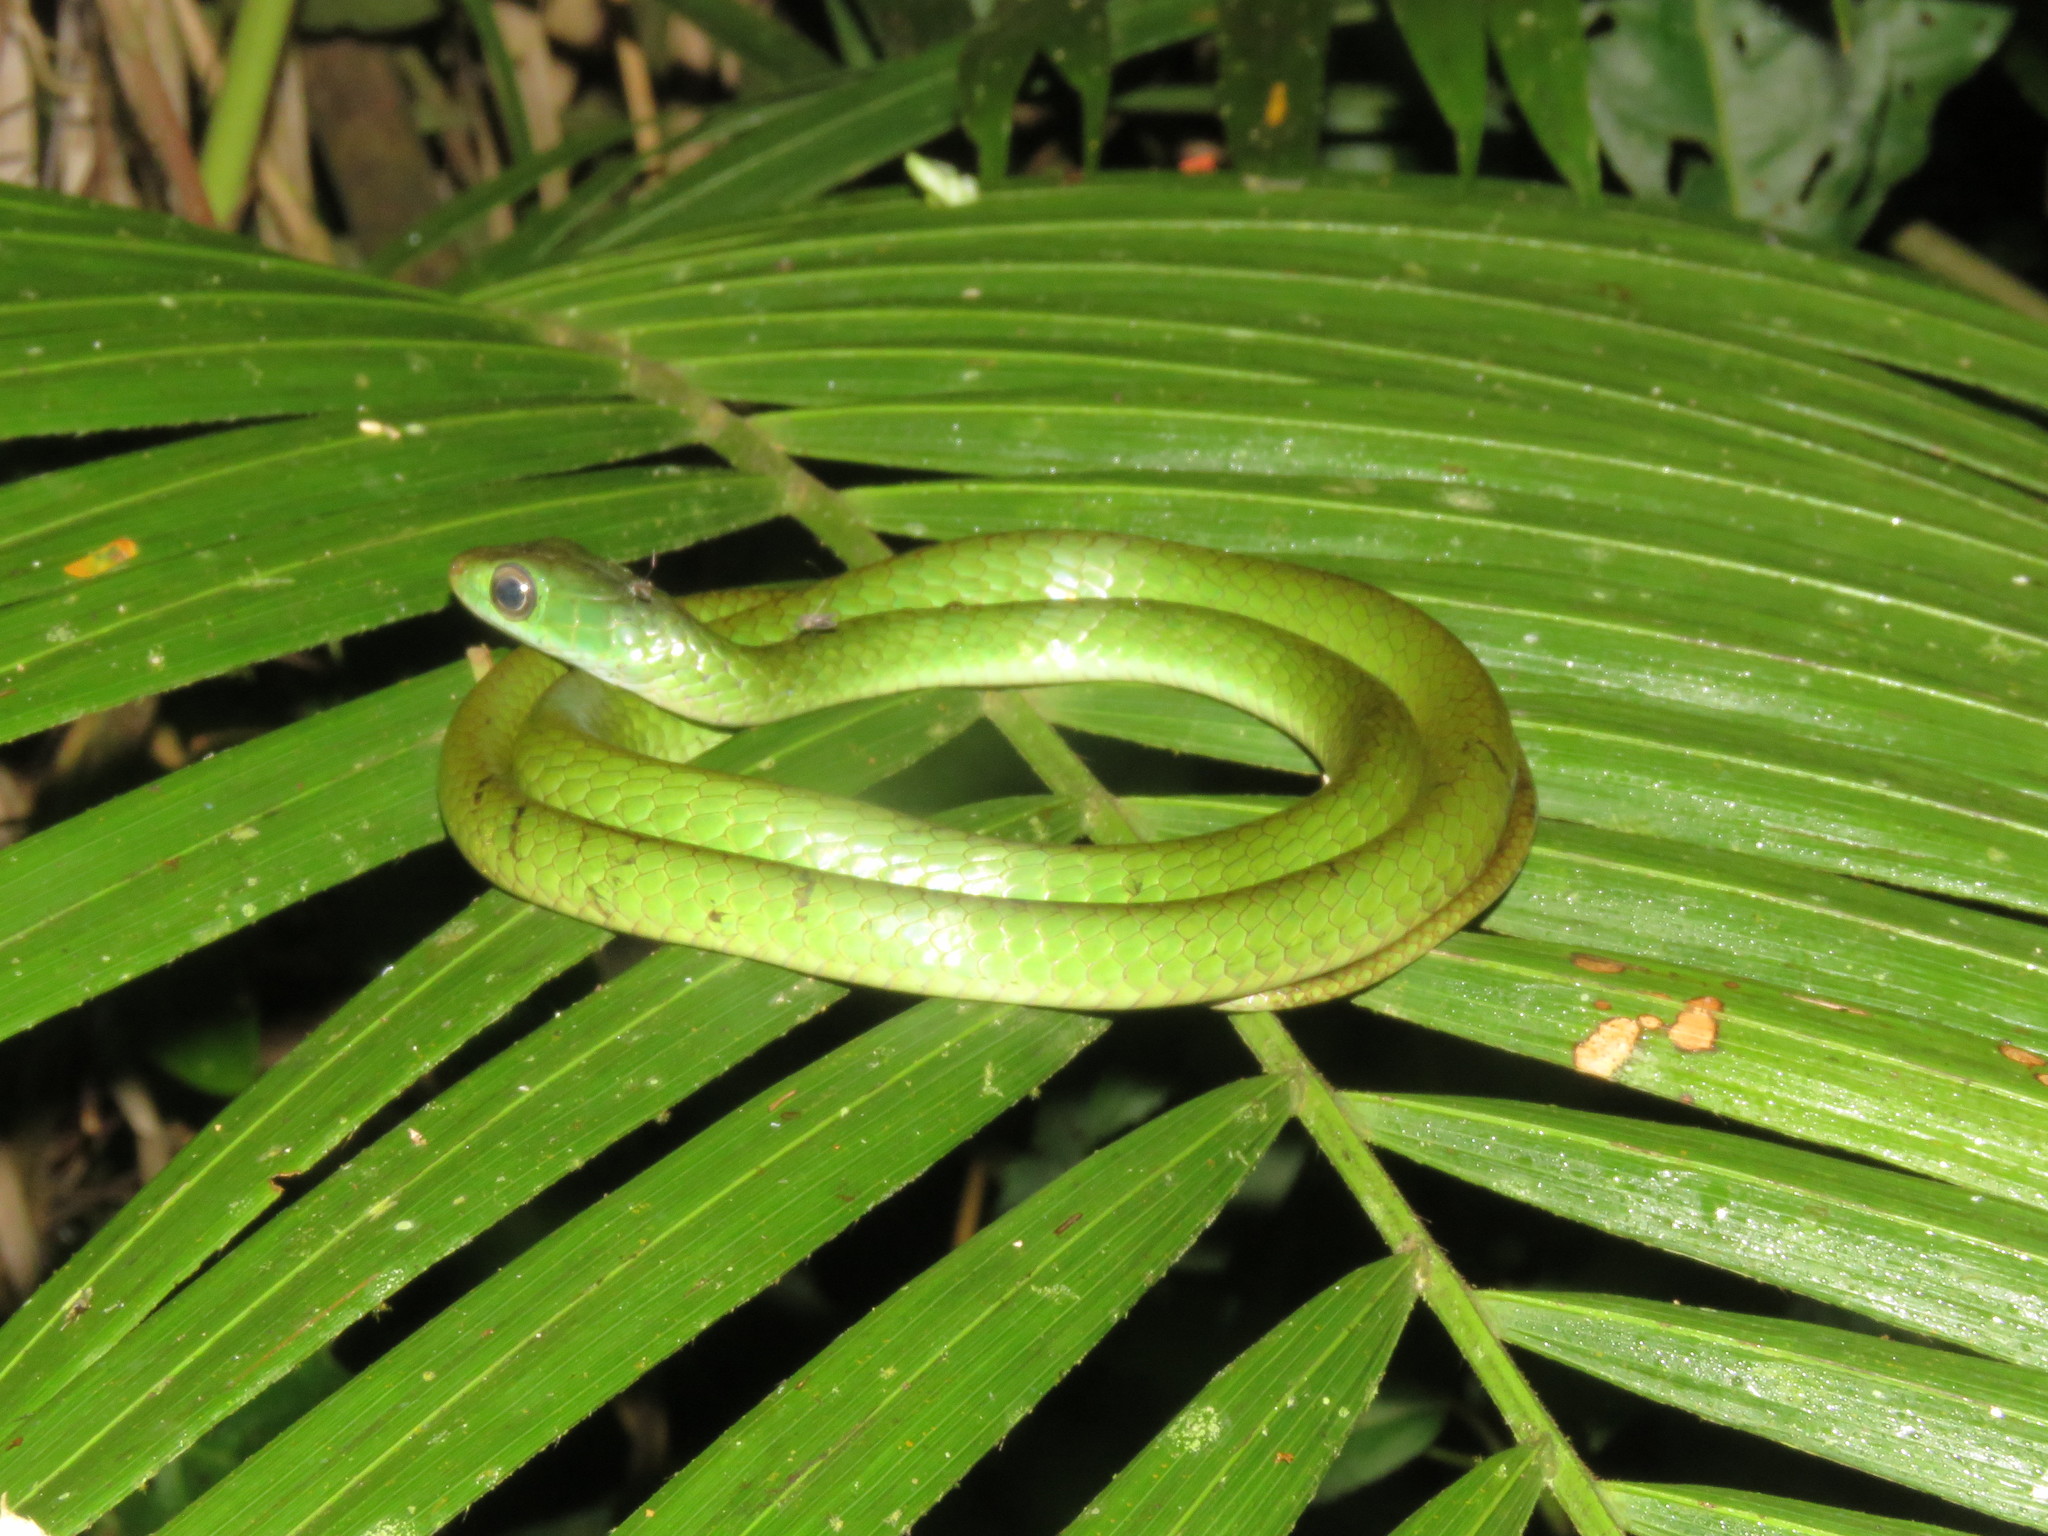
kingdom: Animalia
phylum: Chordata
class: Squamata
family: Colubridae
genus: Chironius
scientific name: Chironius scurrulus
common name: Wagler's sipo
